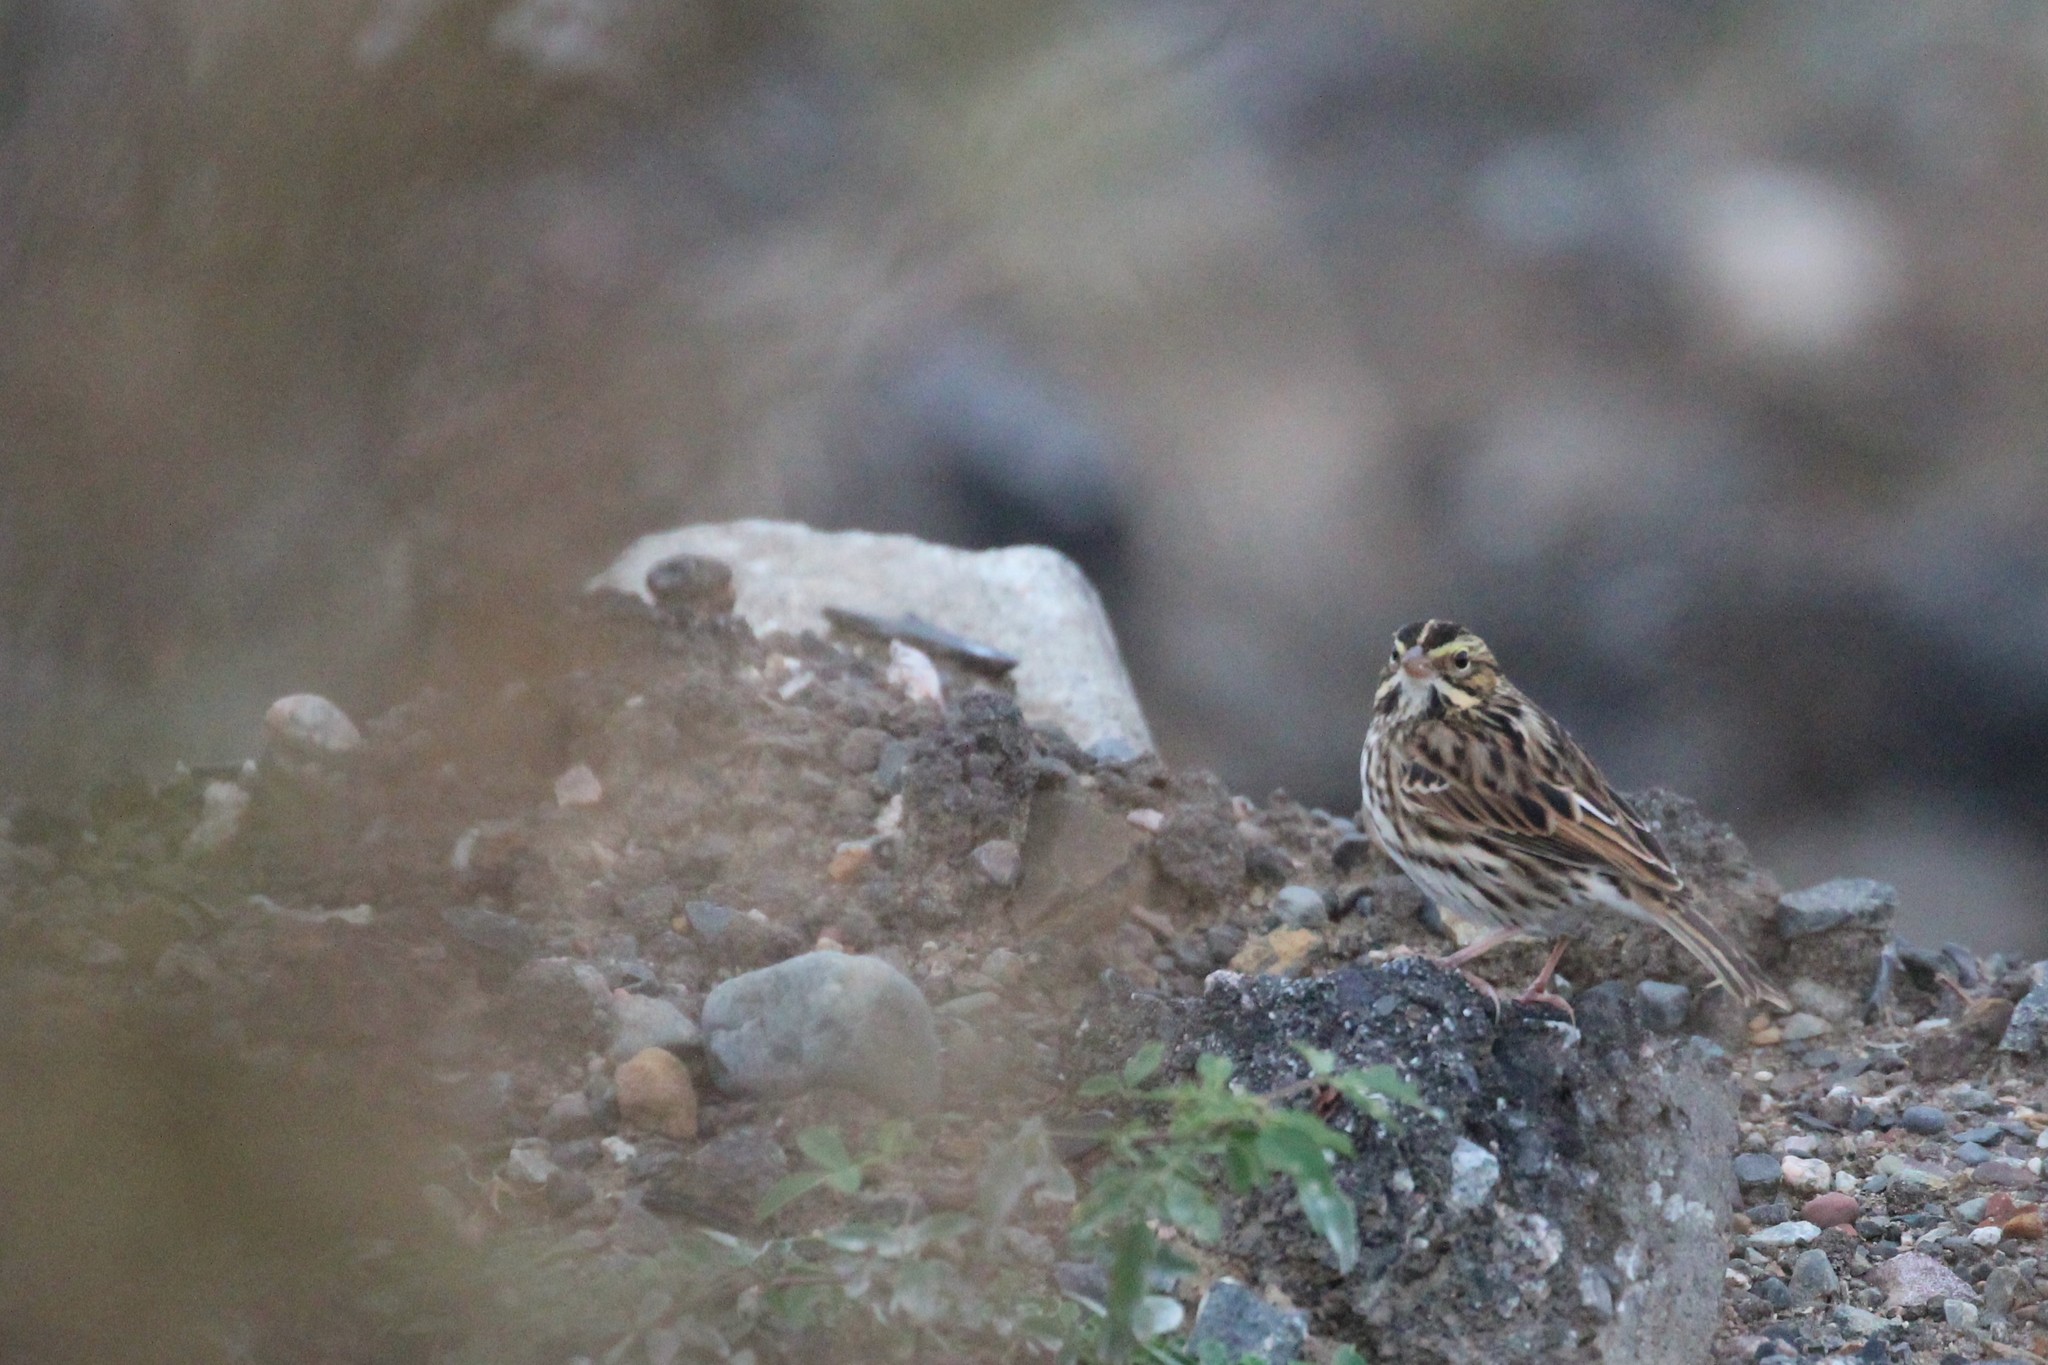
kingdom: Animalia
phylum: Chordata
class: Aves
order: Passeriformes
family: Passerellidae
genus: Passerculus
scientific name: Passerculus sandwichensis
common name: Savannah sparrow
